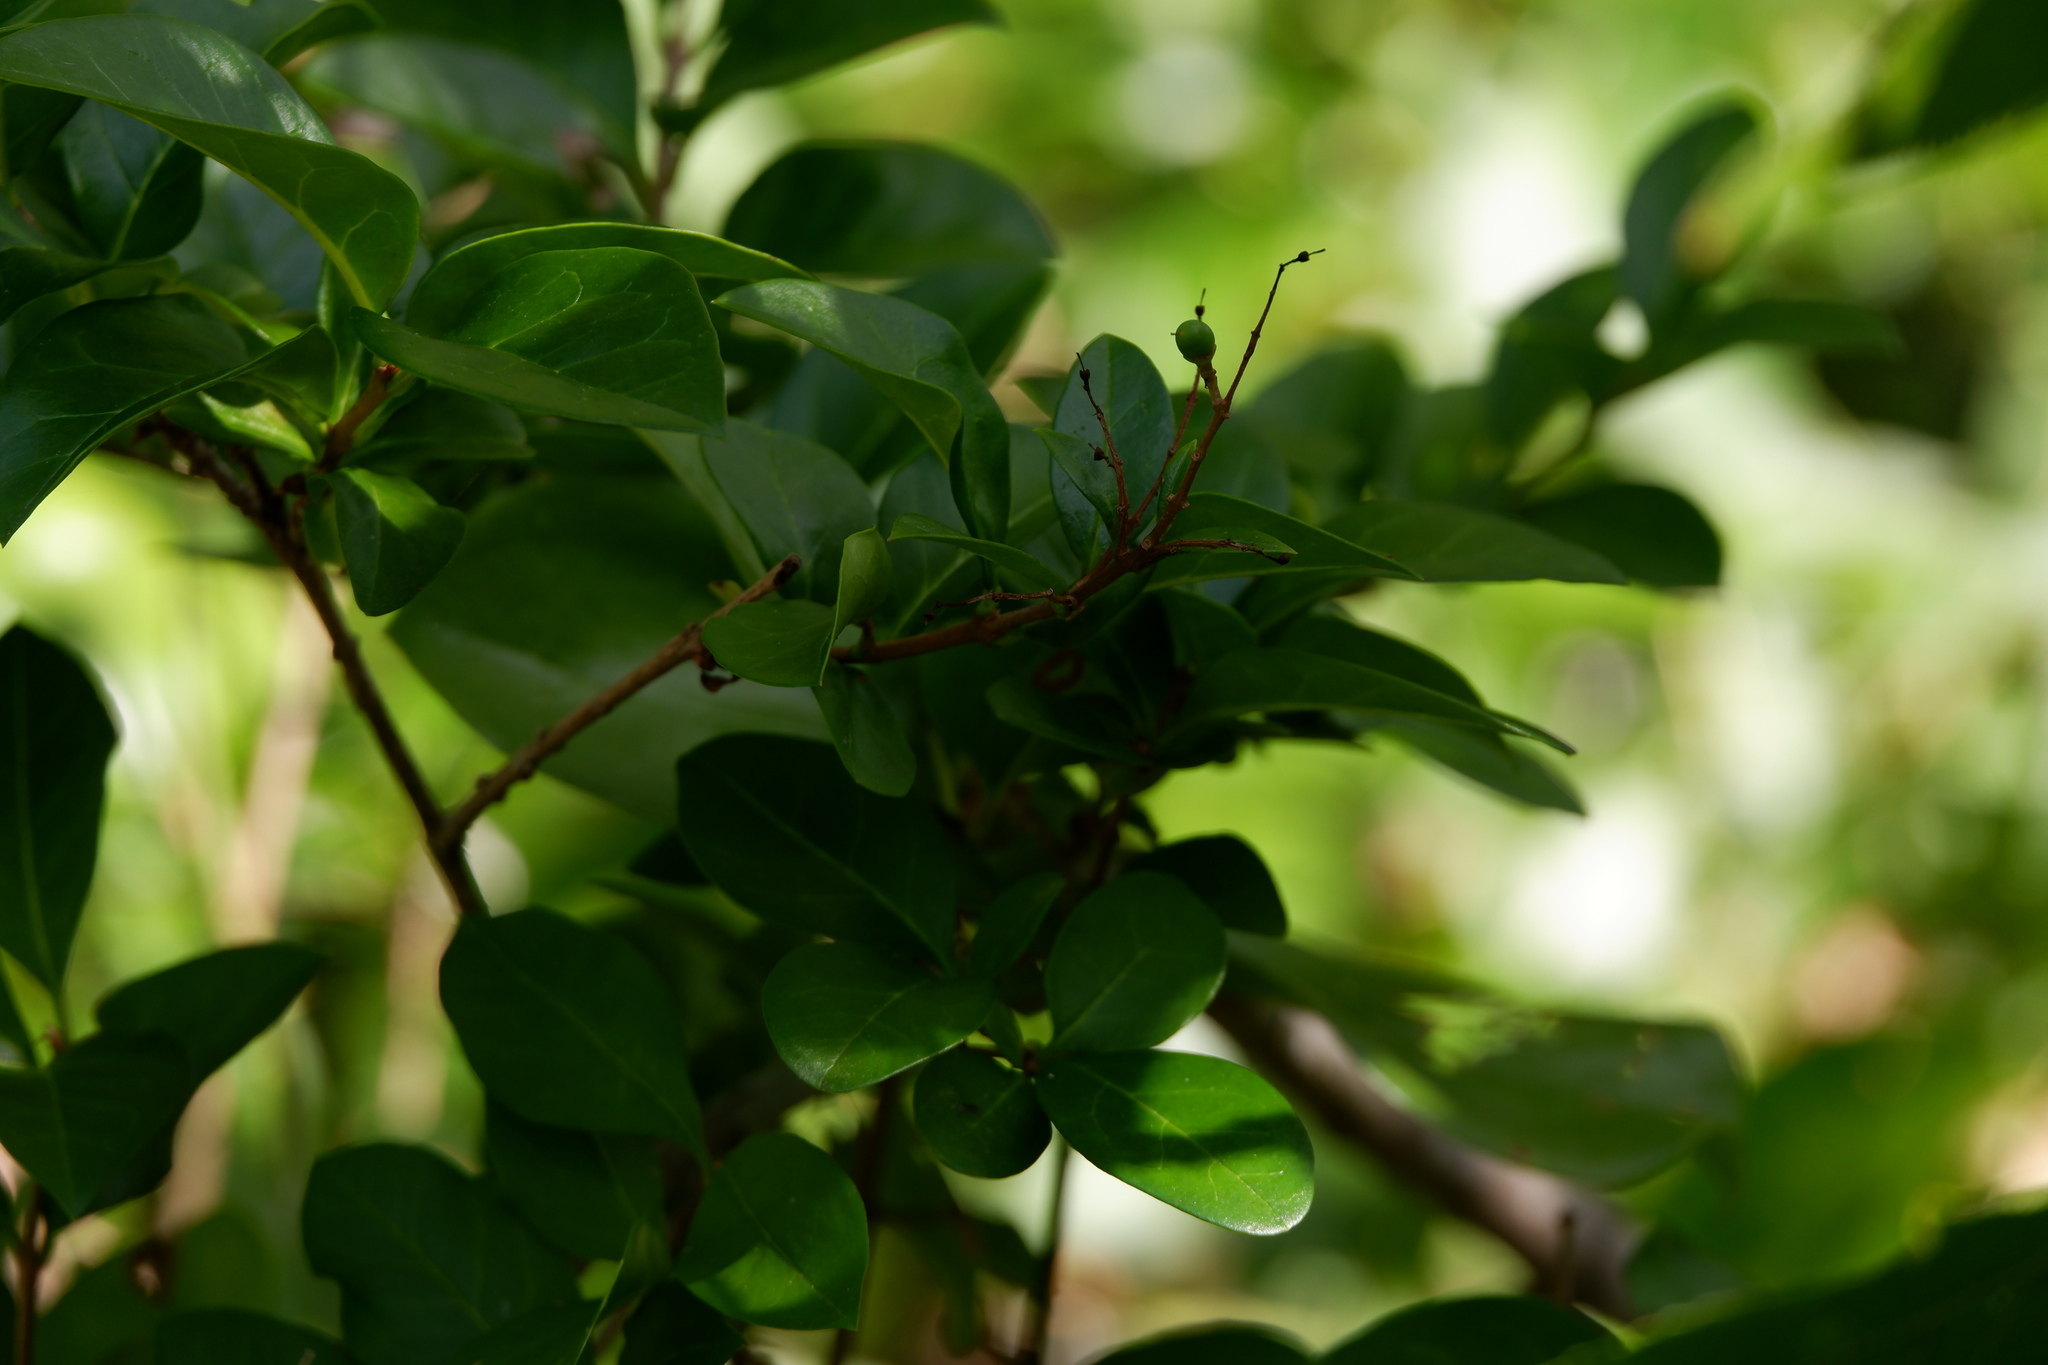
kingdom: Plantae
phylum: Tracheophyta
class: Magnoliopsida
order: Lamiales
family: Oleaceae
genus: Ligustrum
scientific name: Ligustrum ovalifolium
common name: California privet
